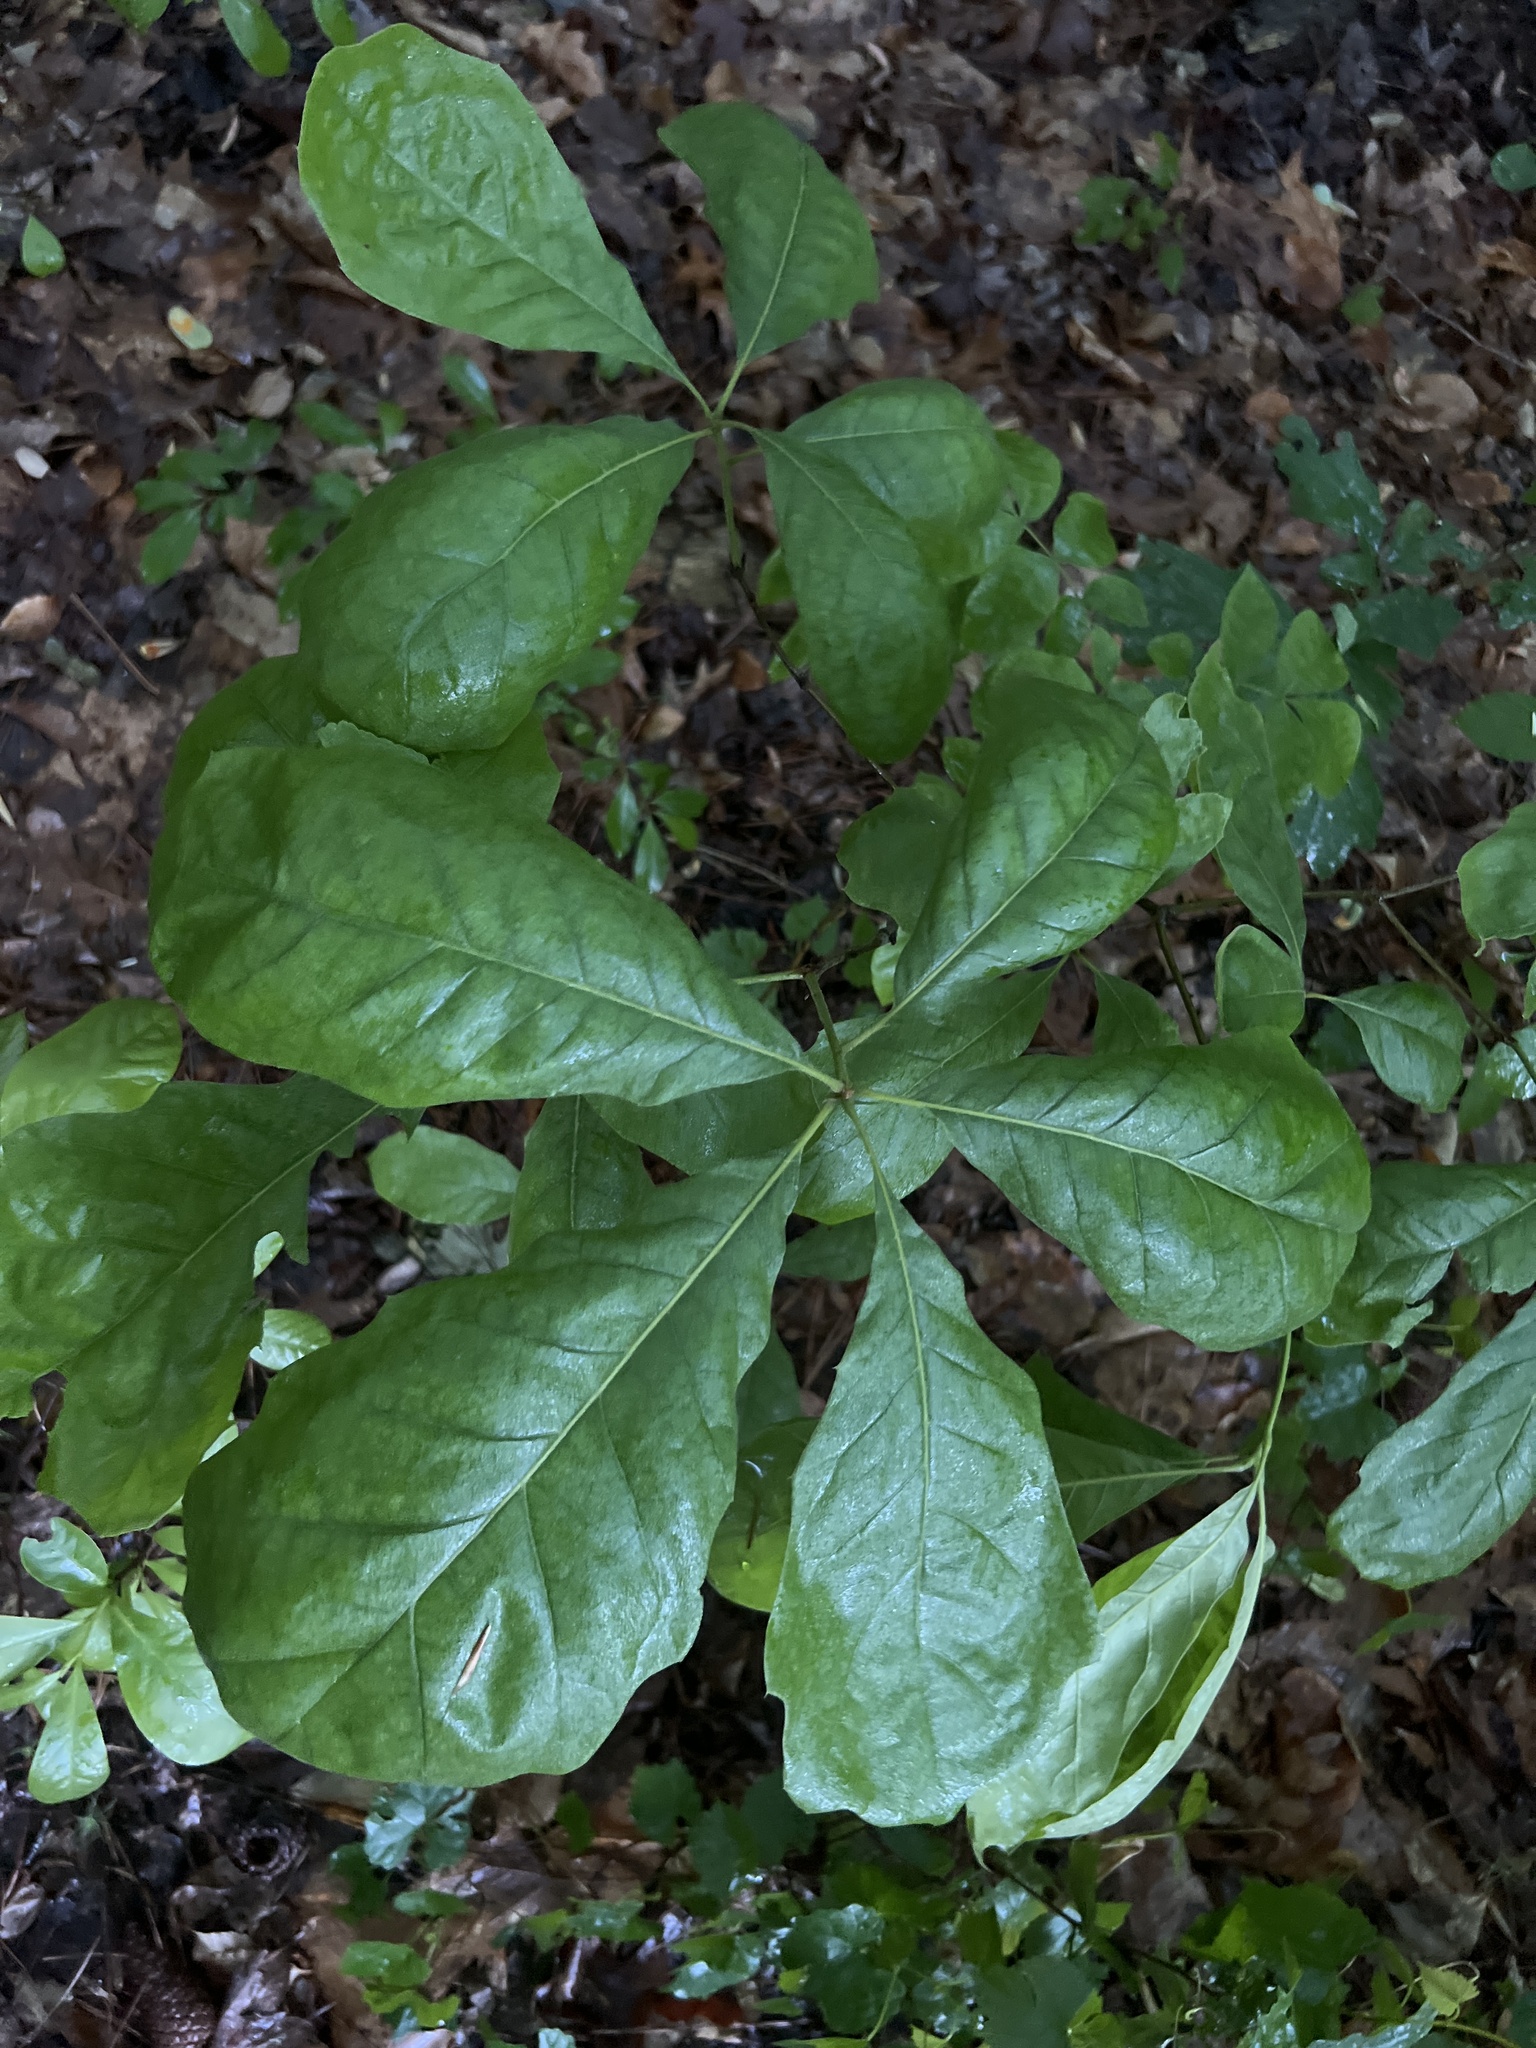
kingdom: Plantae
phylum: Tracheophyta
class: Magnoliopsida
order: Fagales
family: Fagaceae
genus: Quercus
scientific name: Quercus velutina
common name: Black oak
